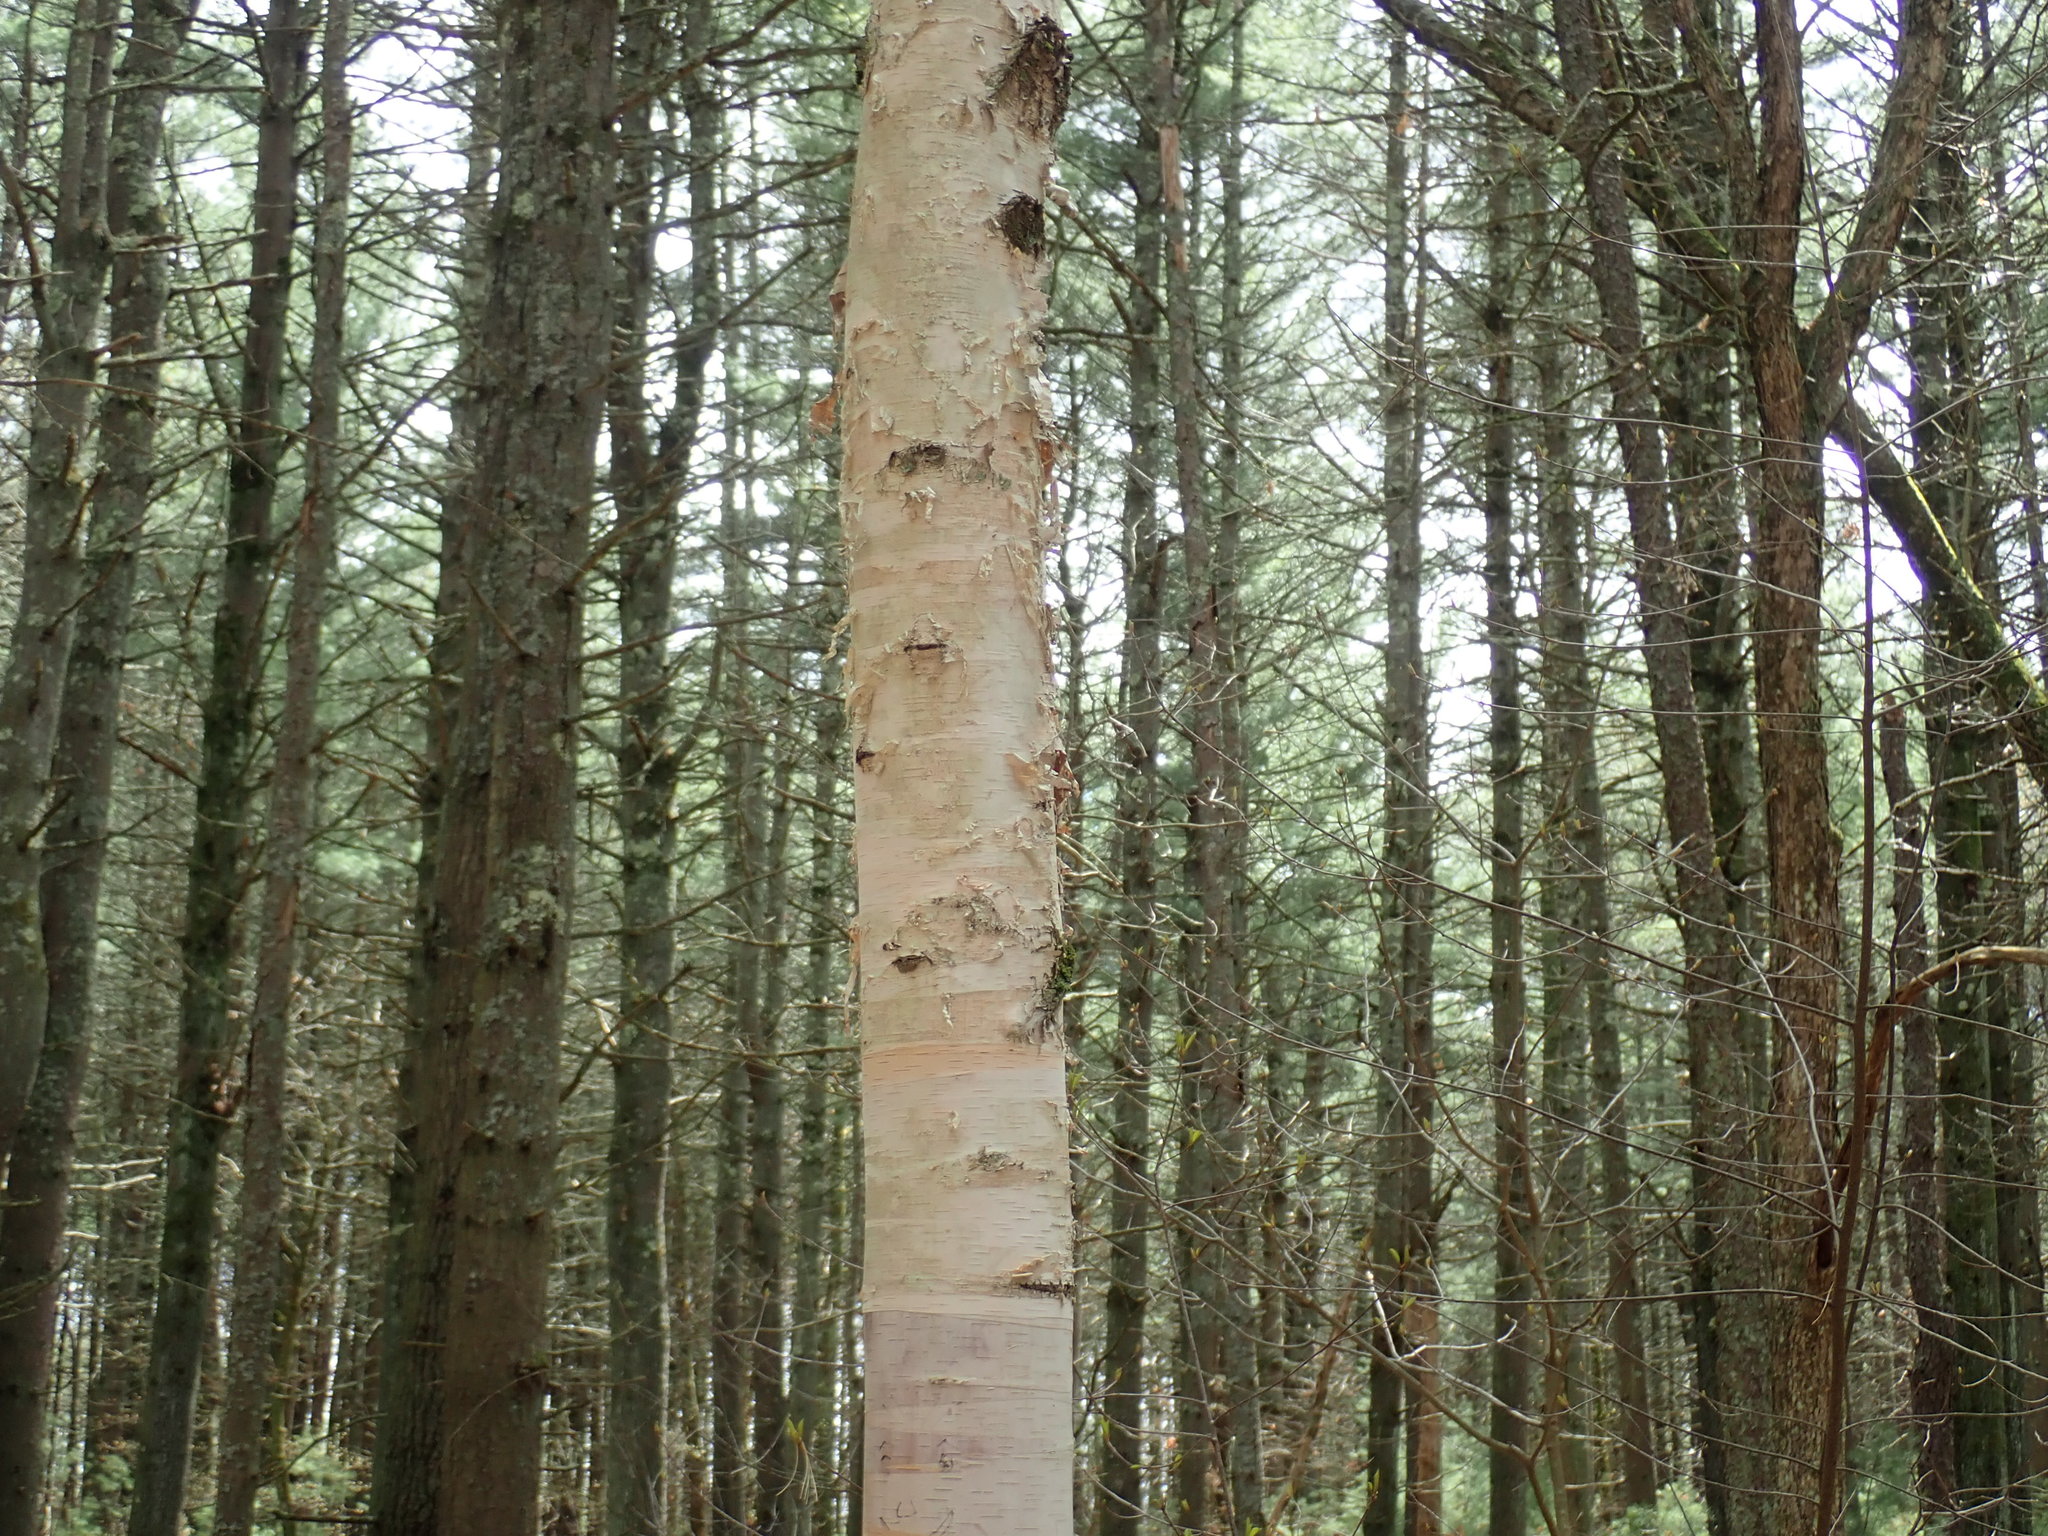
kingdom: Plantae
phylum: Tracheophyta
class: Magnoliopsida
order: Fagales
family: Betulaceae
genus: Betula
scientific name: Betula papyrifera
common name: Paper birch
